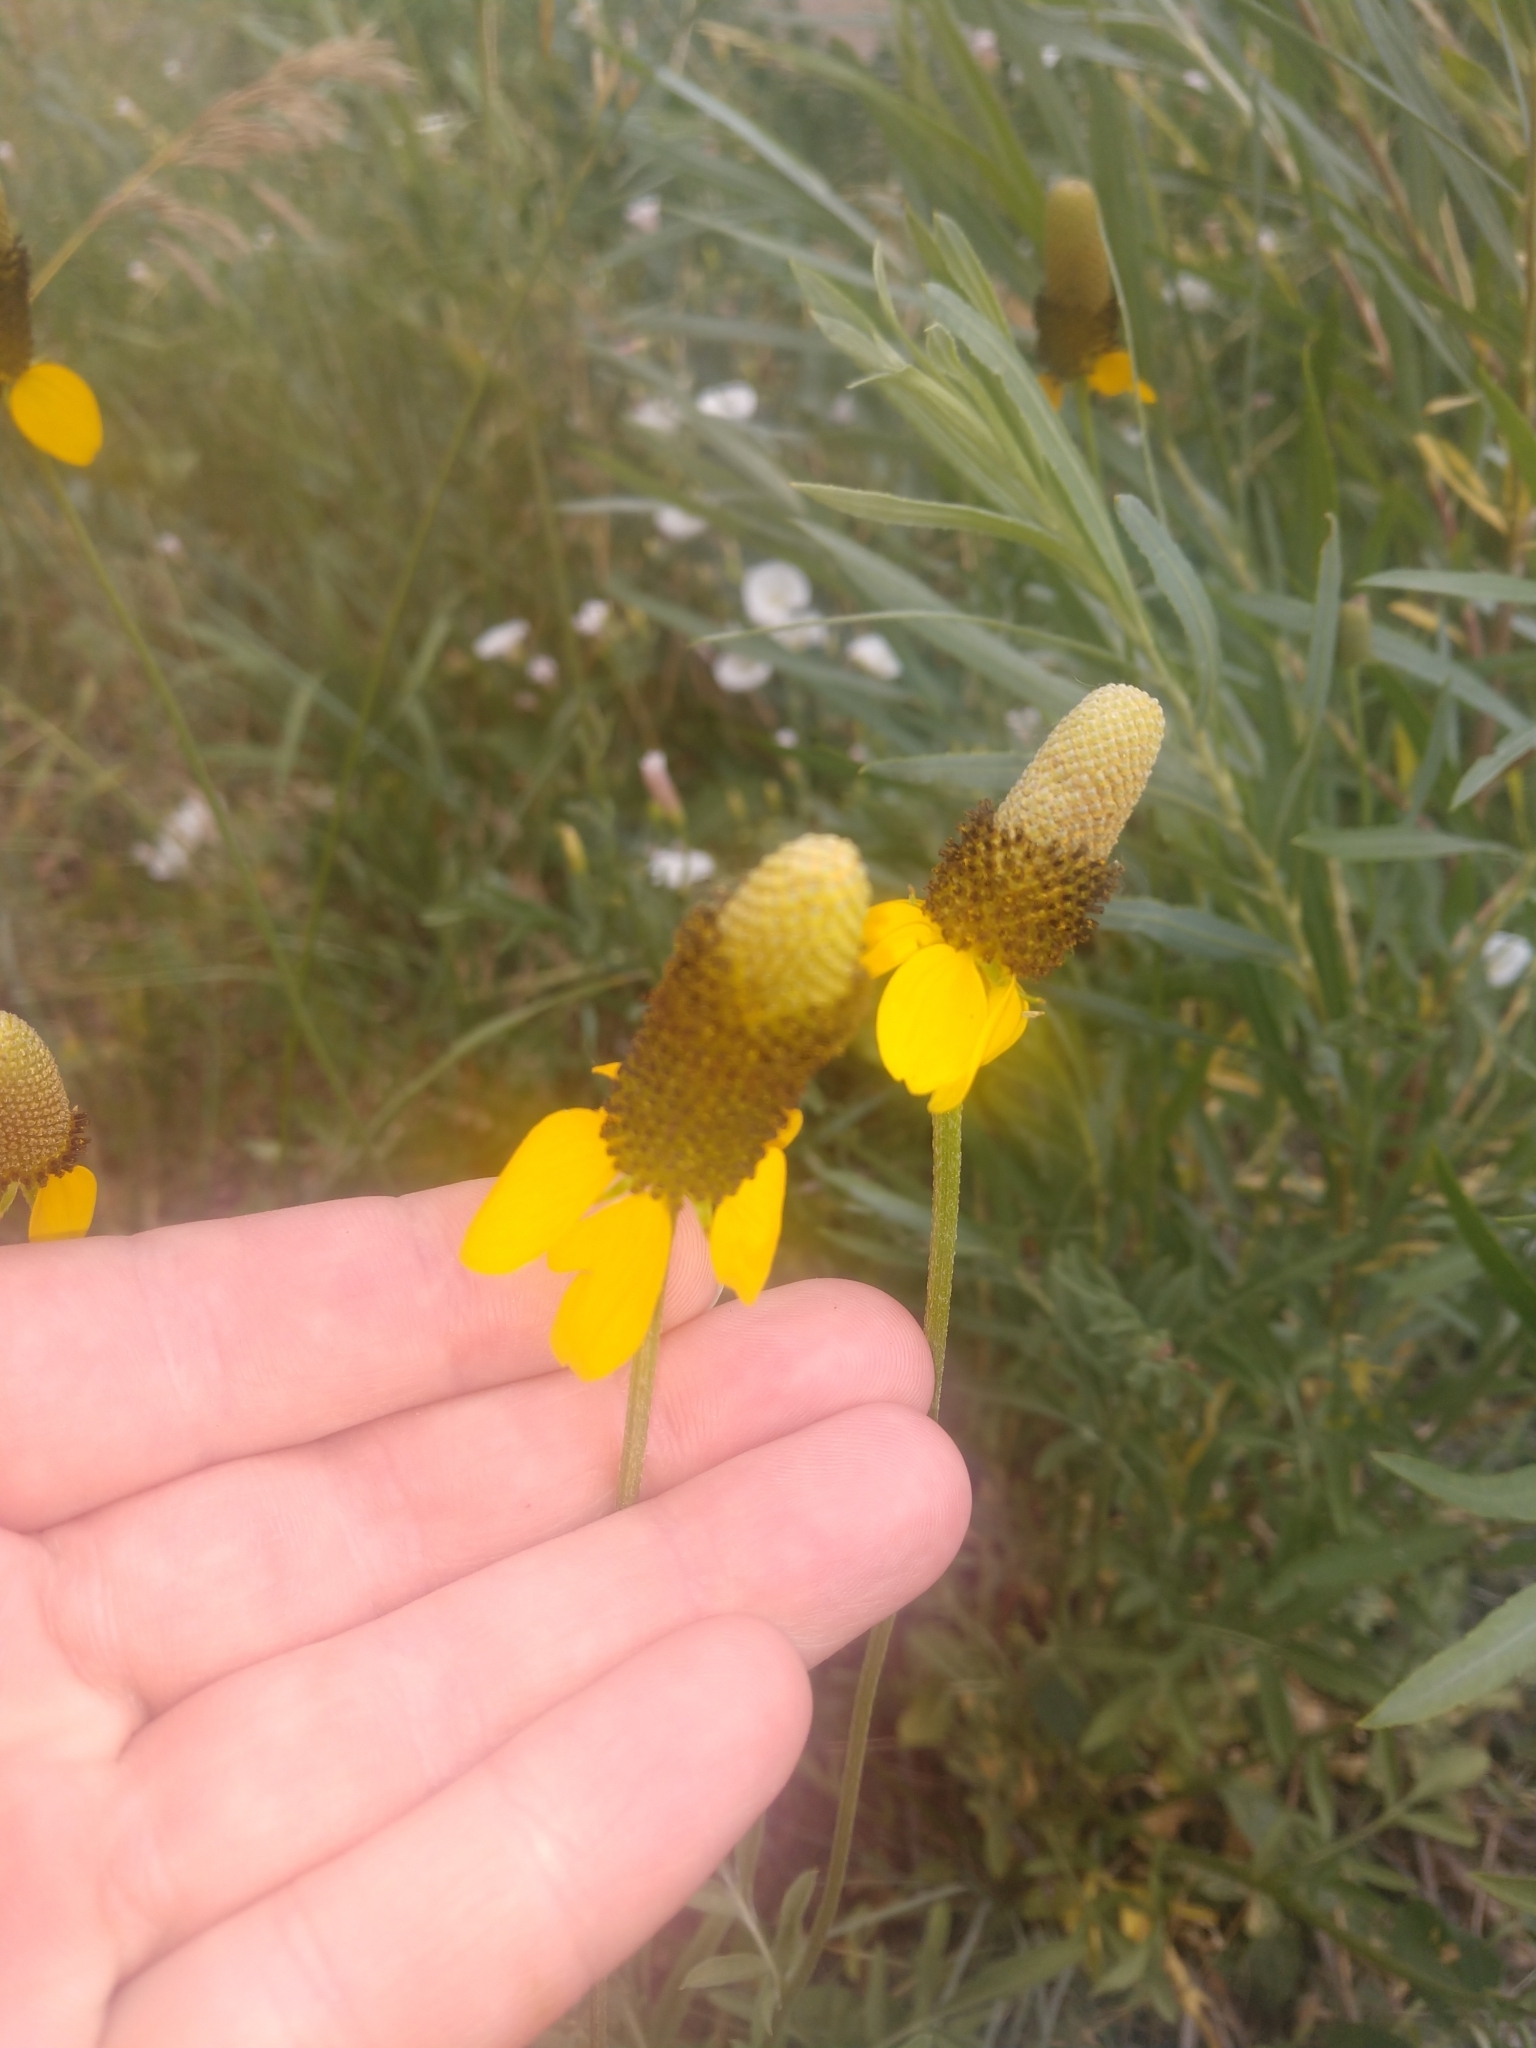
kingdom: Plantae
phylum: Tracheophyta
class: Magnoliopsida
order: Asterales
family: Asteraceae
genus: Ratibida
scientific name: Ratibida columnifera
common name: Prairie coneflower
